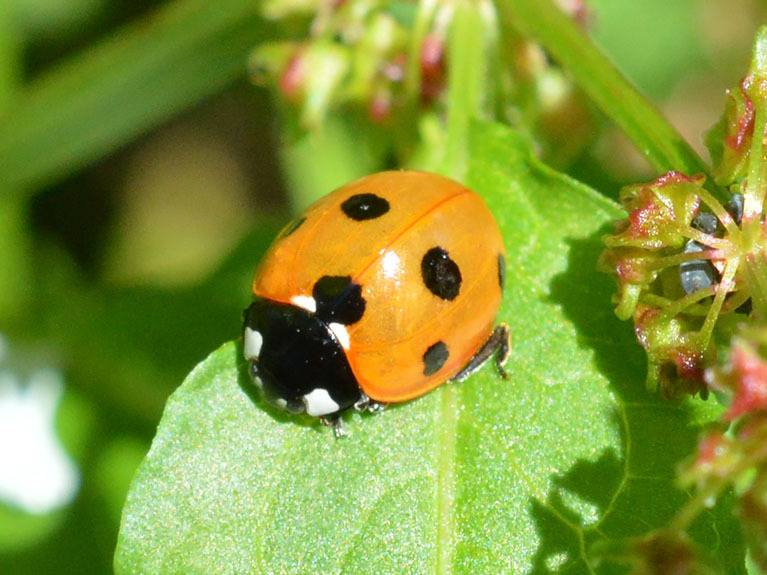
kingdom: Animalia
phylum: Arthropoda
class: Insecta
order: Coleoptera
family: Coccinellidae
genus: Coccinella
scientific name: Coccinella septempunctata
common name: Sevenspotted lady beetle
